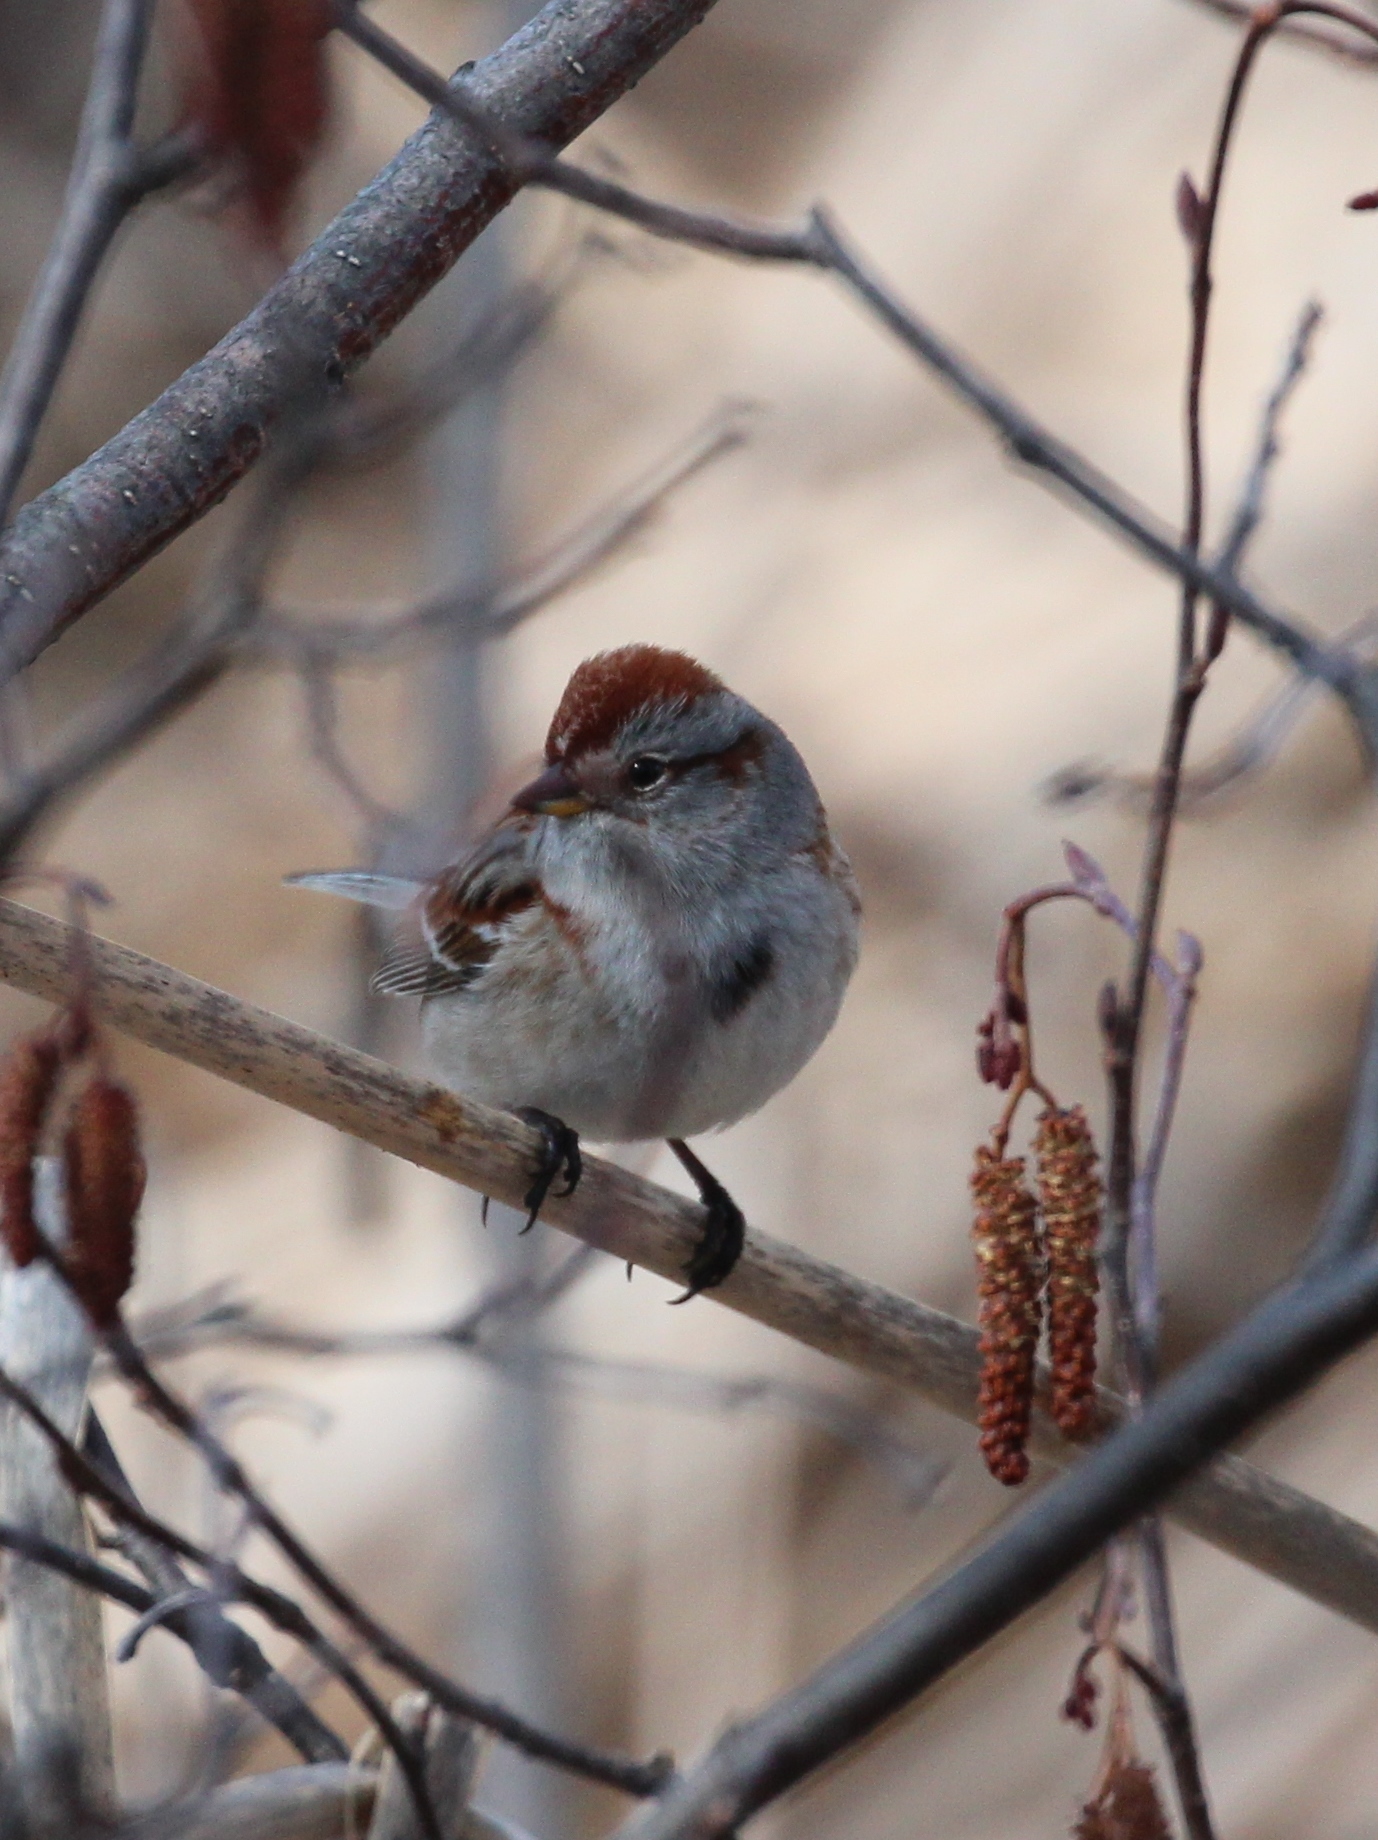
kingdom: Animalia
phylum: Chordata
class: Aves
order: Passeriformes
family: Passerellidae
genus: Spizelloides
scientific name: Spizelloides arborea
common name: American tree sparrow
